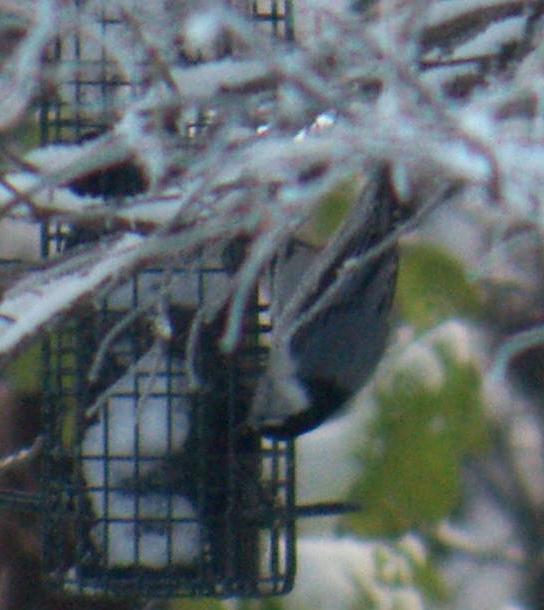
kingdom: Animalia
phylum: Chordata
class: Aves
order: Passeriformes
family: Sittidae
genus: Sitta
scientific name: Sitta carolinensis
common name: White-breasted nuthatch
